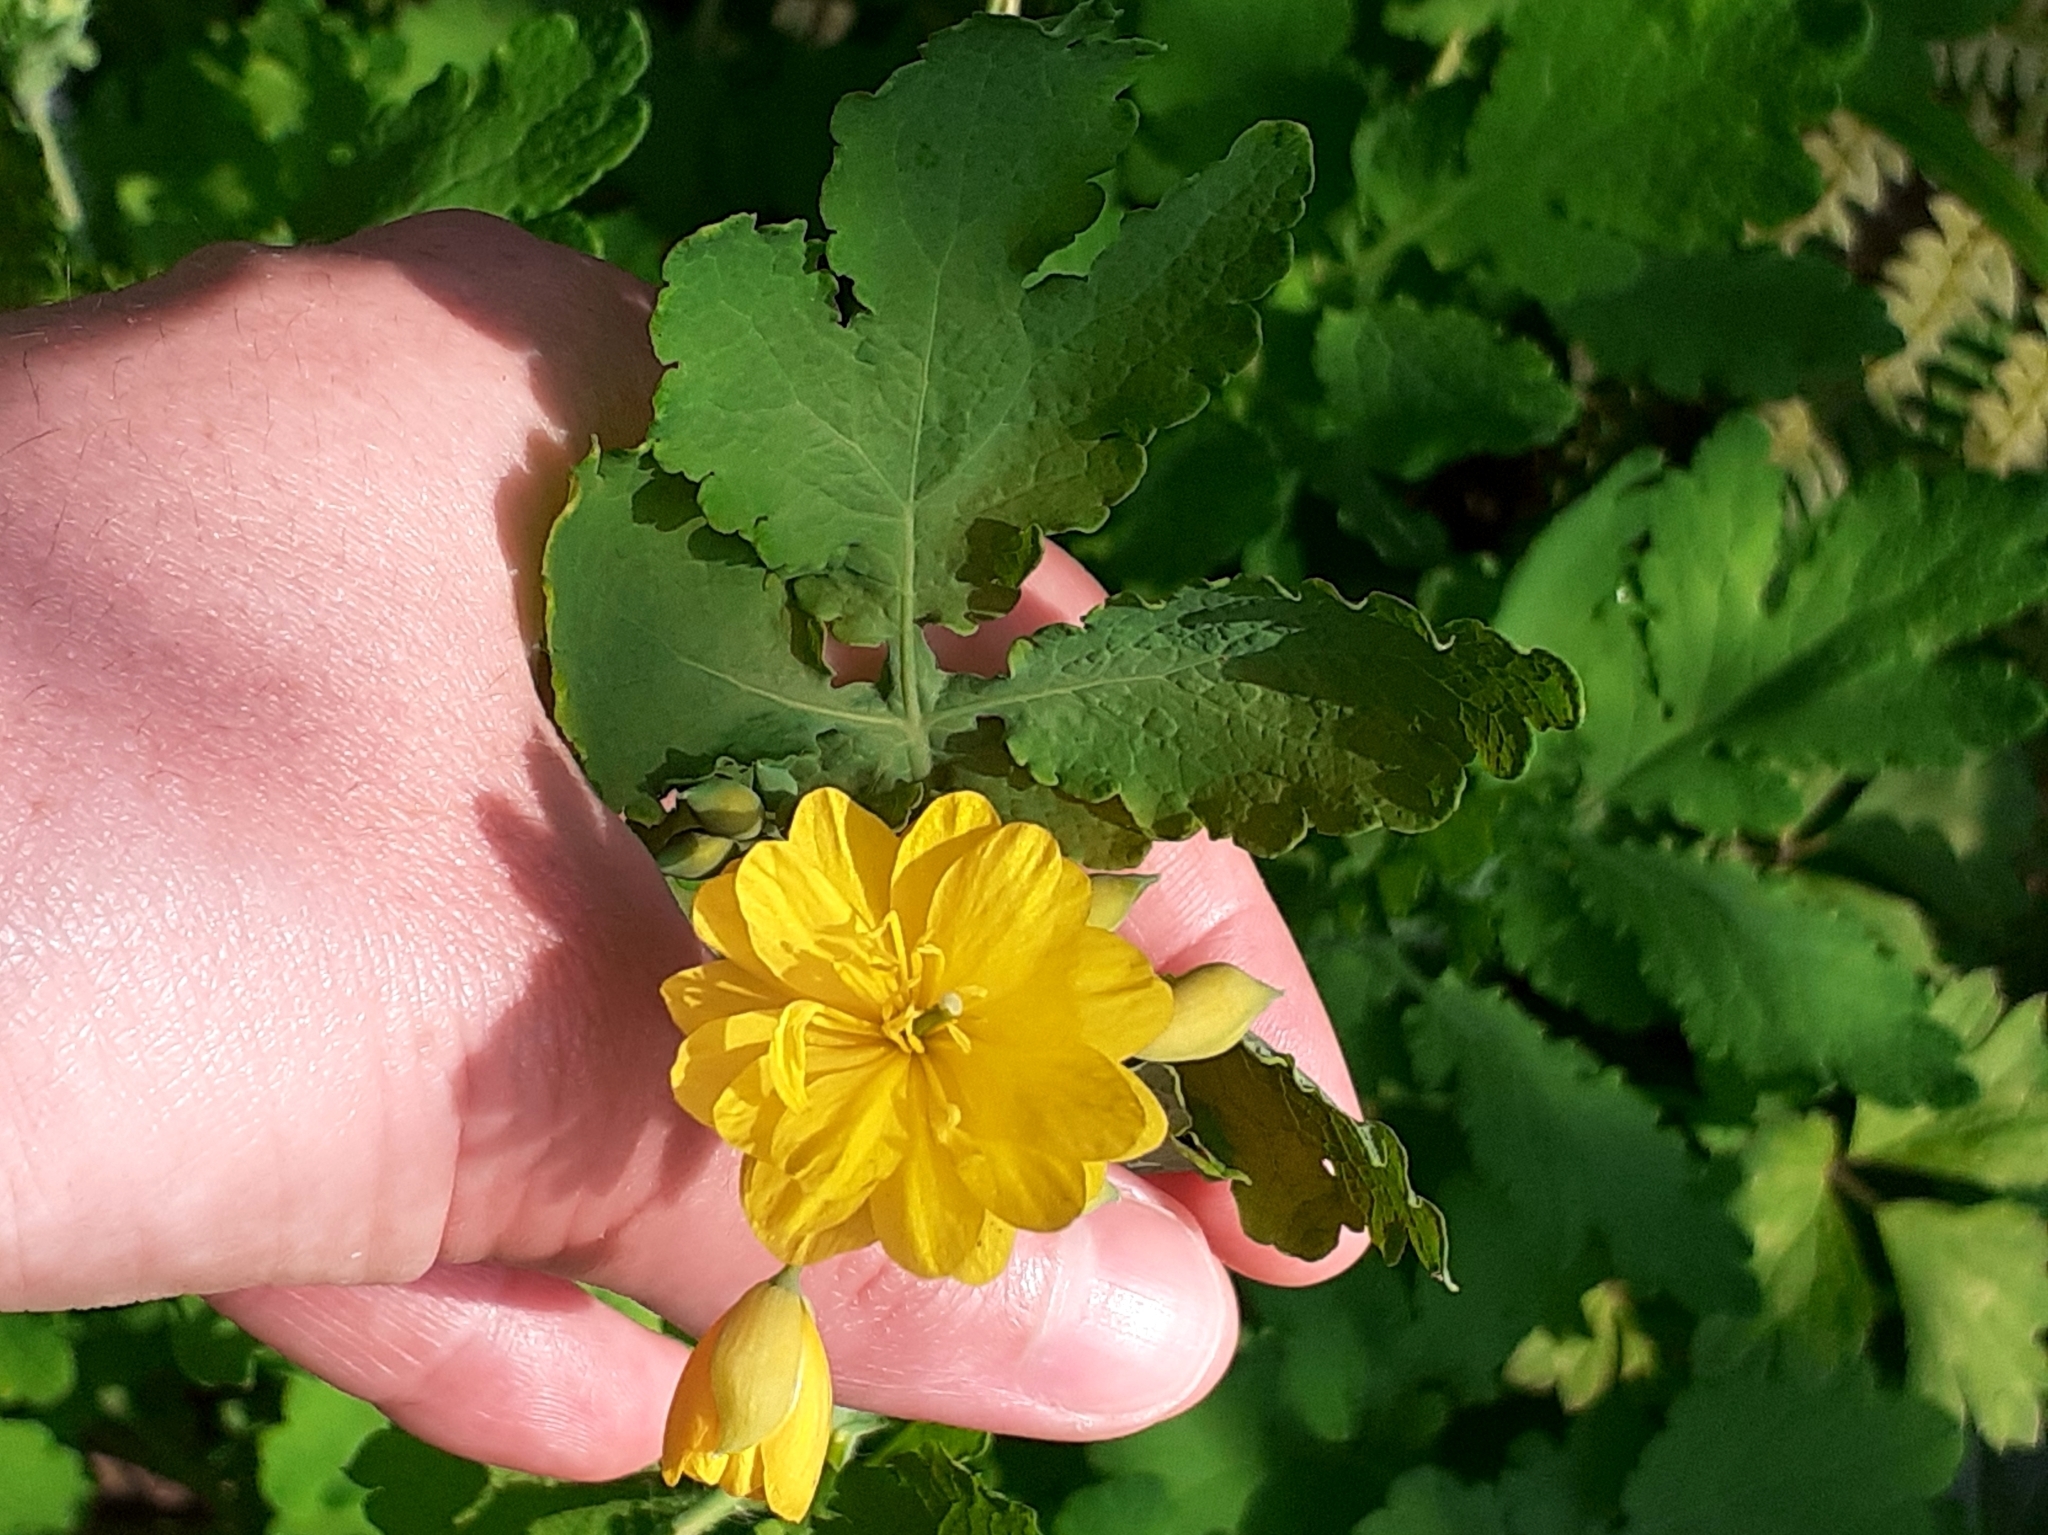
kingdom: Plantae
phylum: Tracheophyta
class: Magnoliopsida
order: Ranunculales
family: Papaveraceae
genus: Chelidonium
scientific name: Chelidonium majus
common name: Greater celandine
